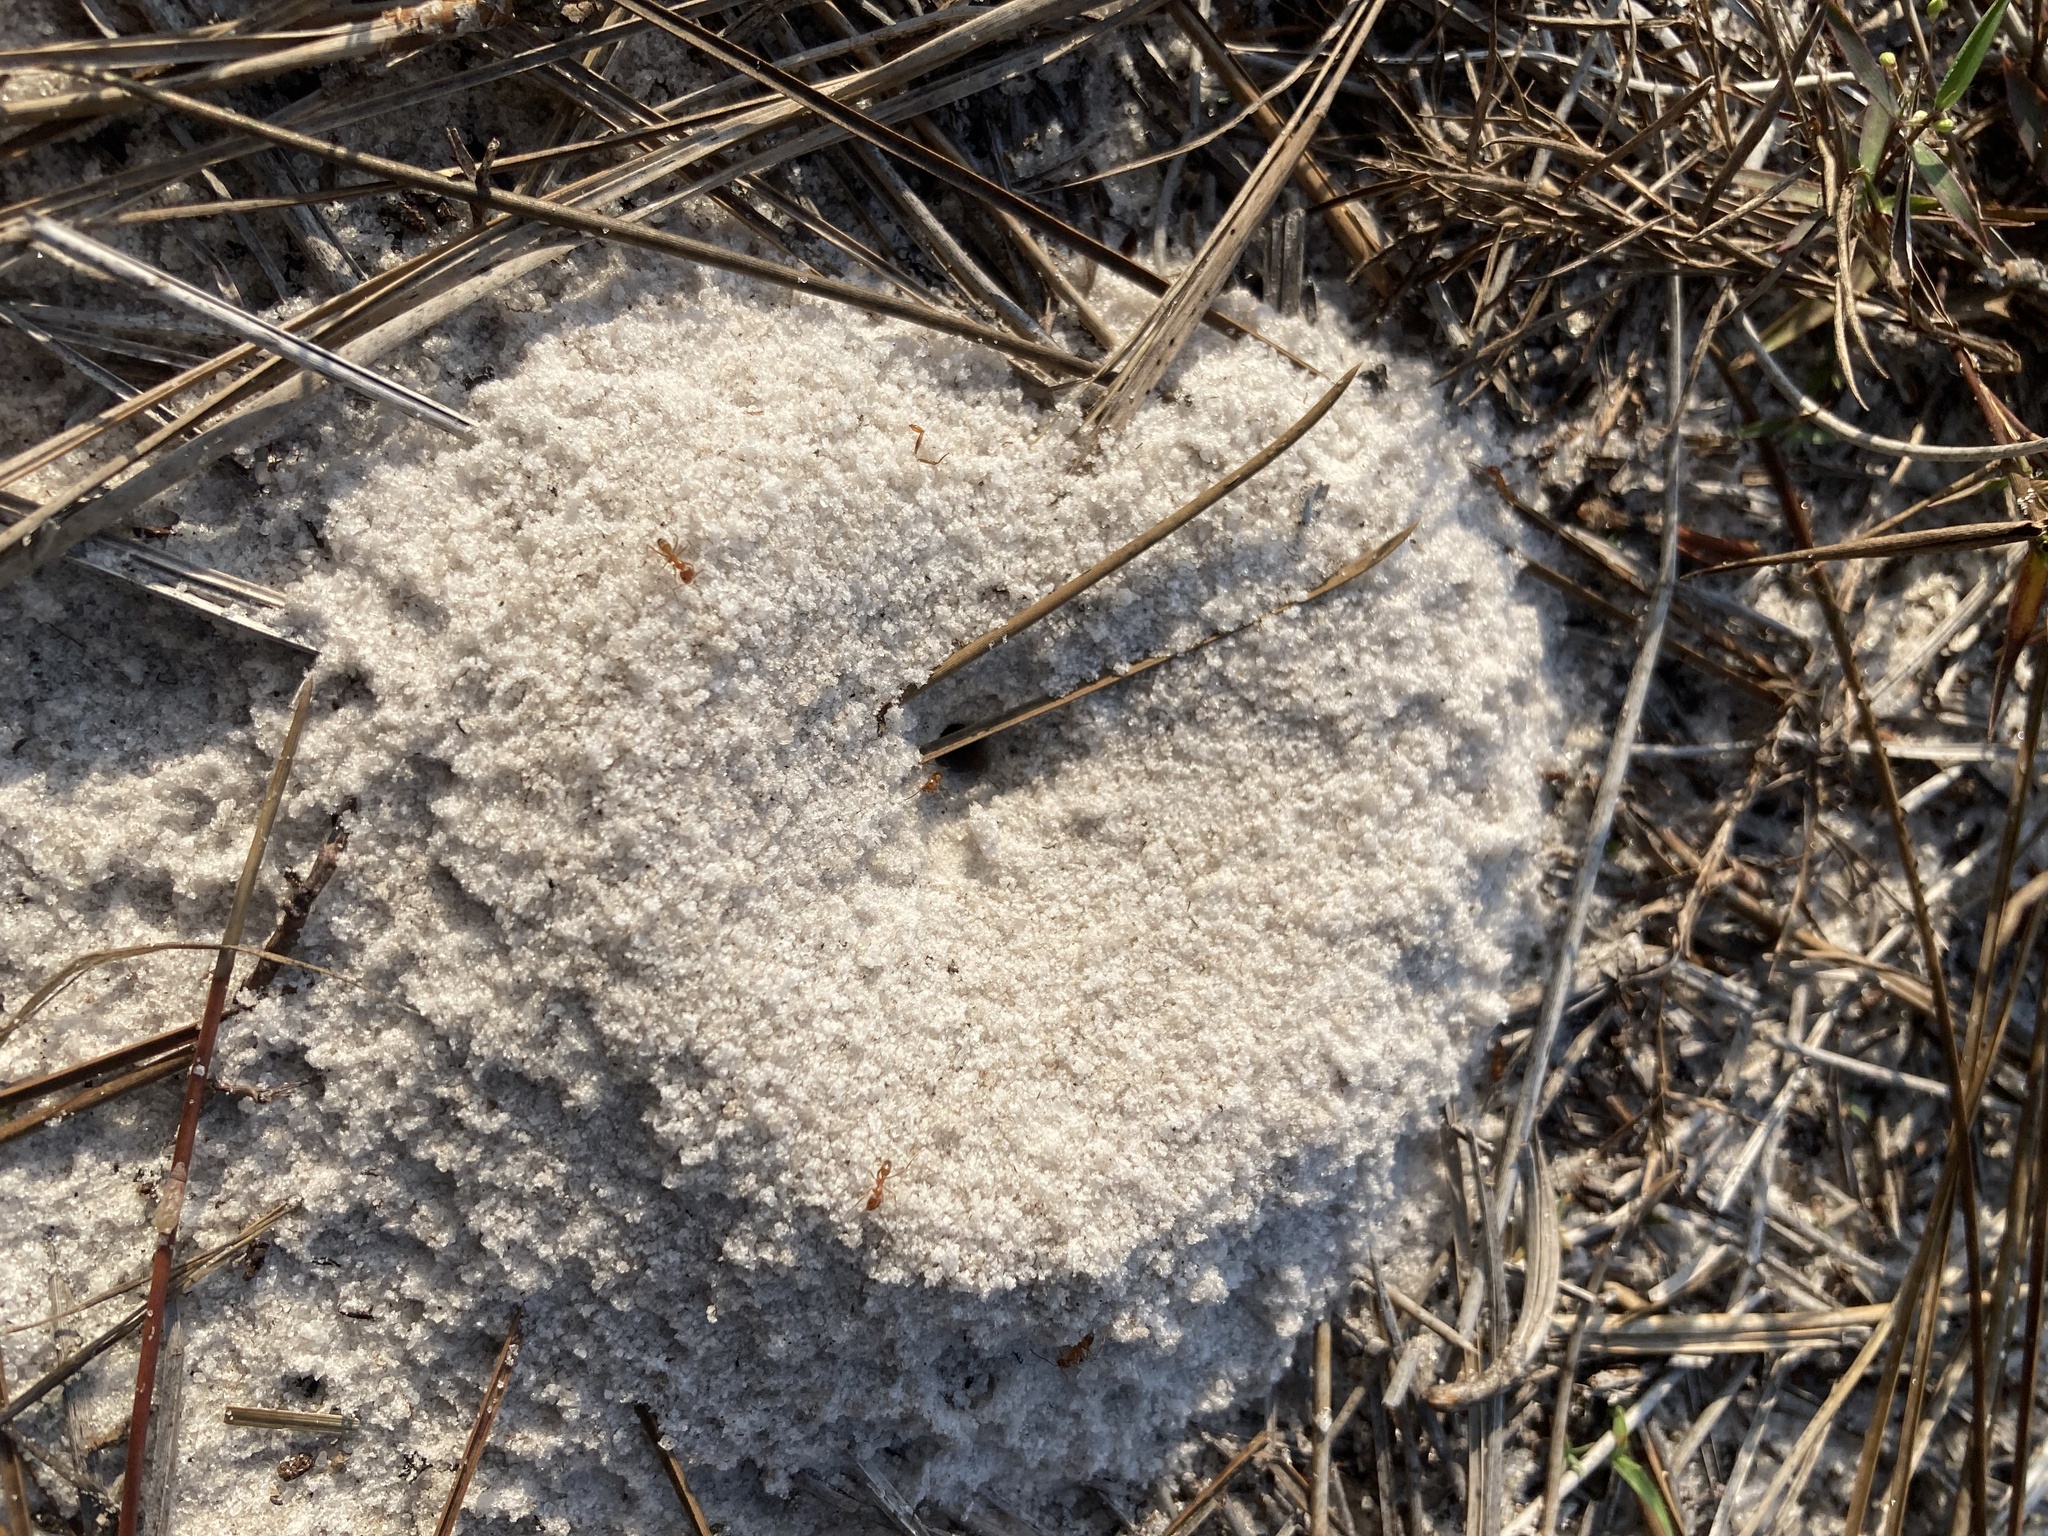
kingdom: Animalia
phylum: Arthropoda
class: Insecta
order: Hymenoptera
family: Formicidae
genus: Dorymyrmex
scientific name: Dorymyrmex bureni
